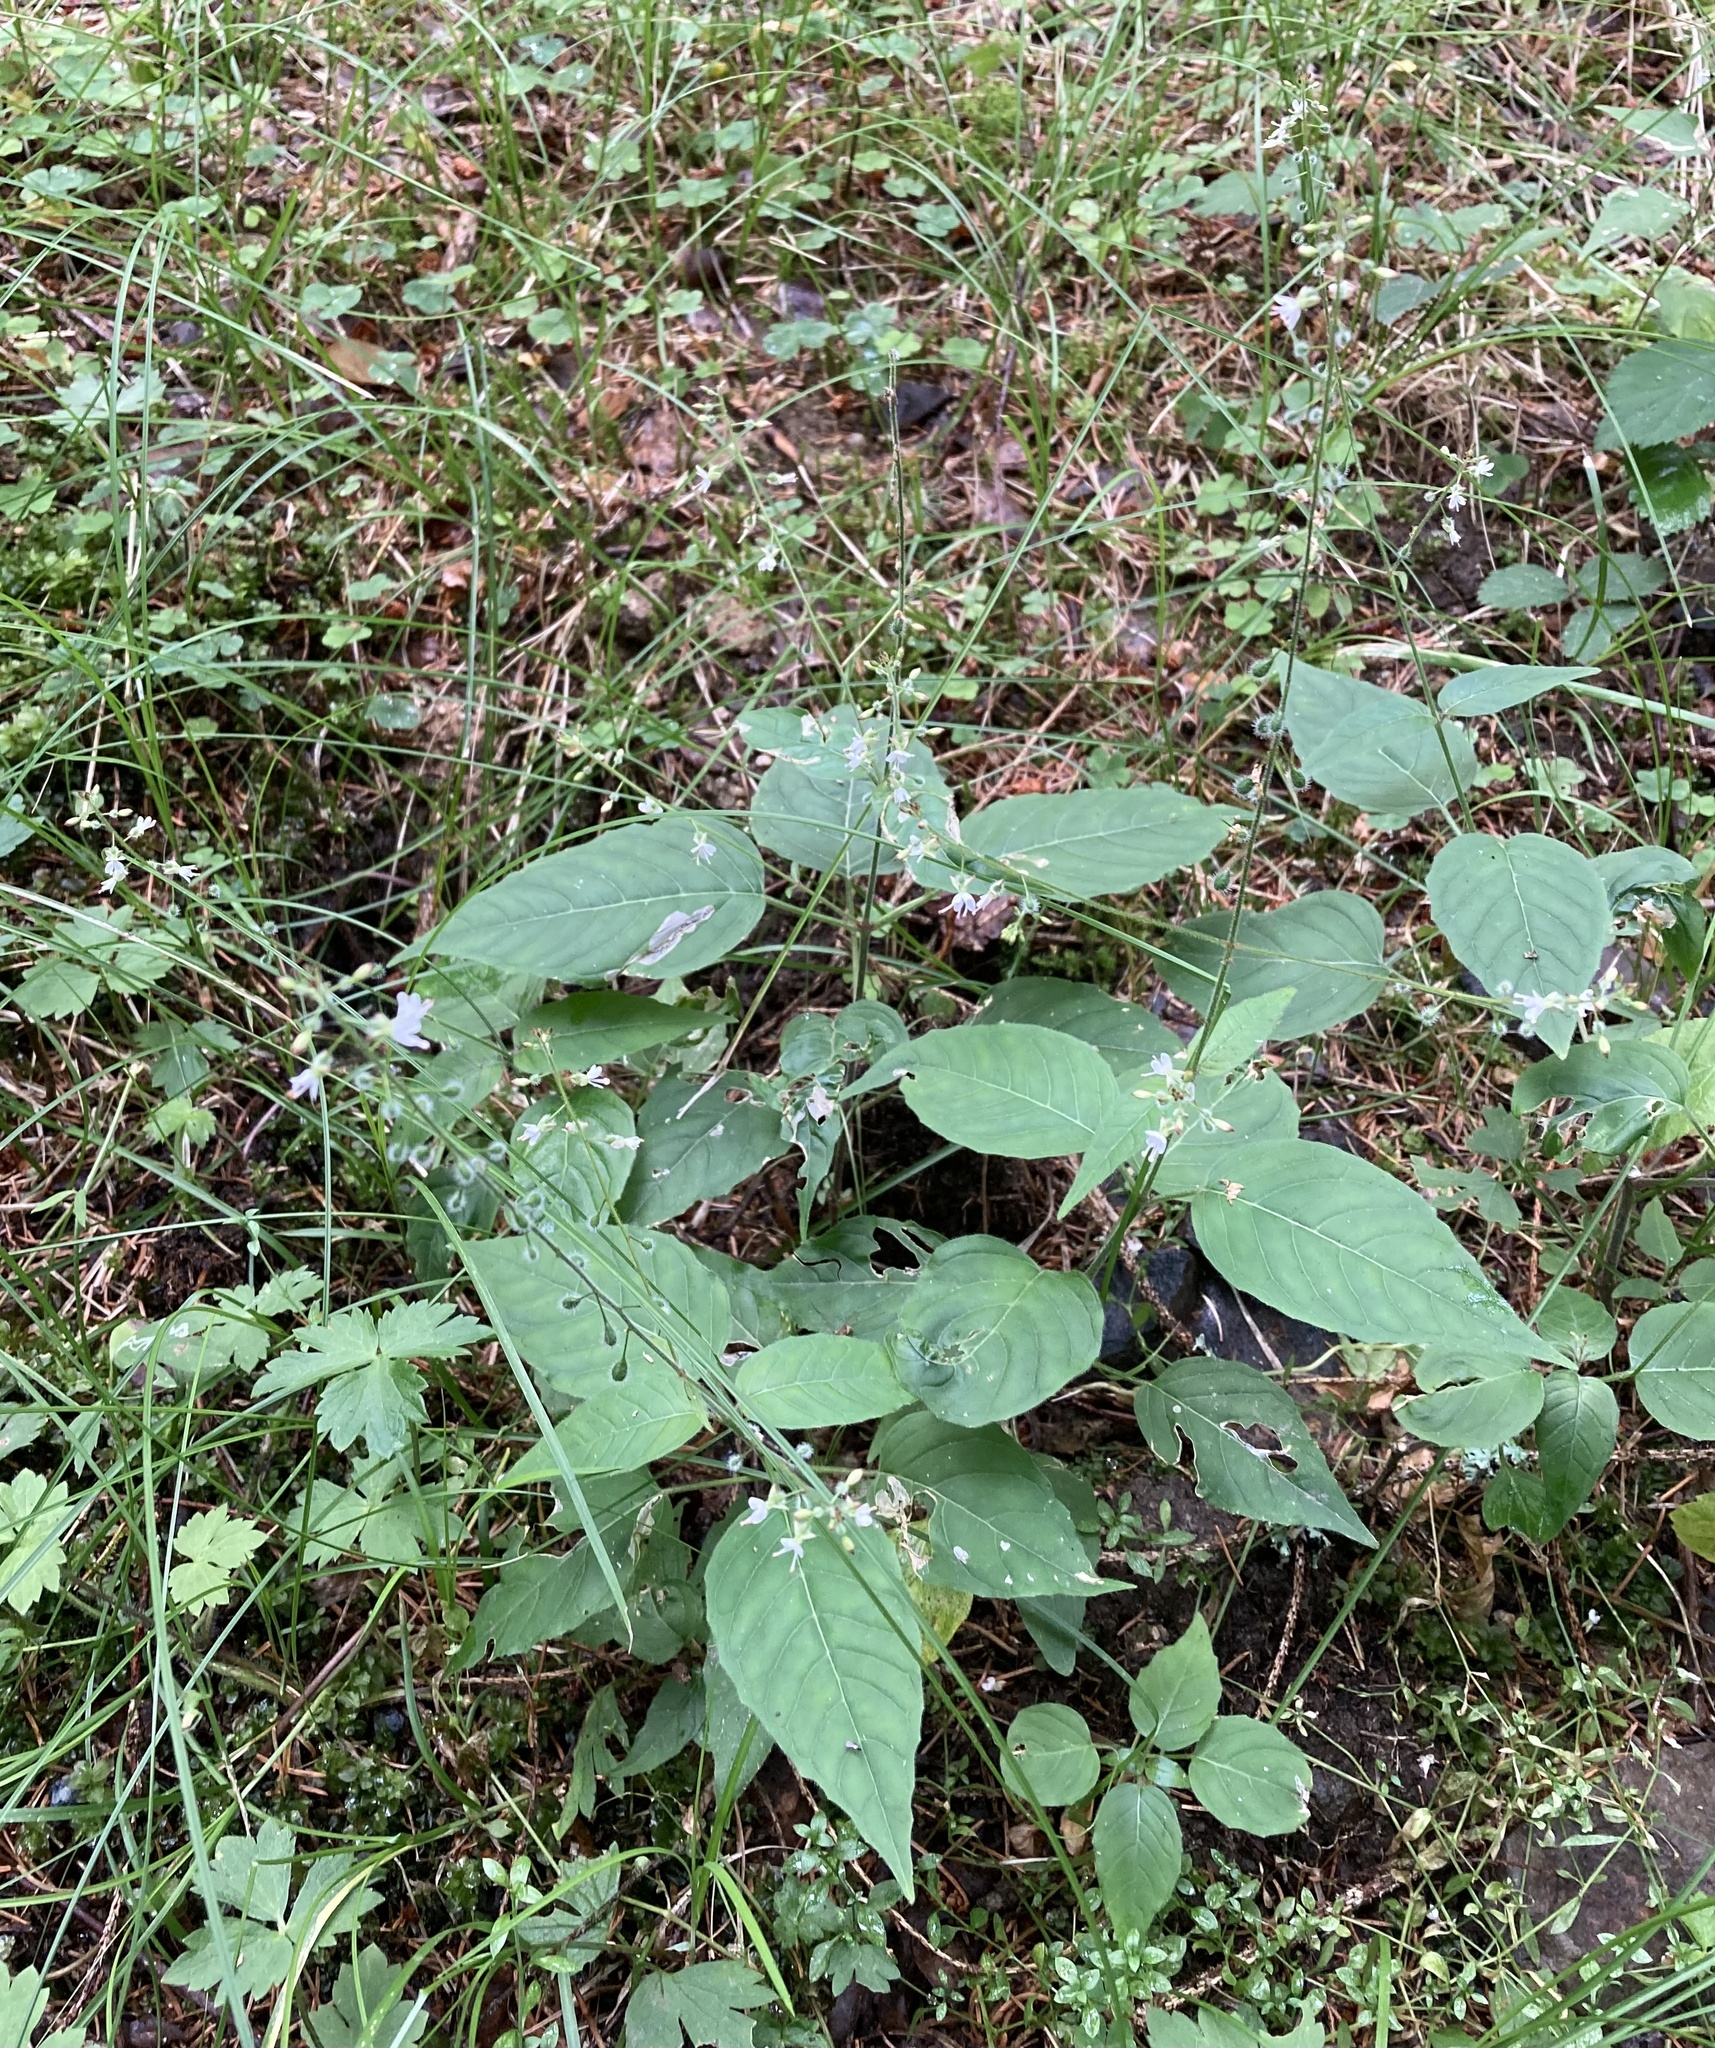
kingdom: Plantae
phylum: Tracheophyta
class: Magnoliopsida
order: Myrtales
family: Onagraceae
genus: Circaea
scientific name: Circaea lutetiana
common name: Enchanter's-nightshade
